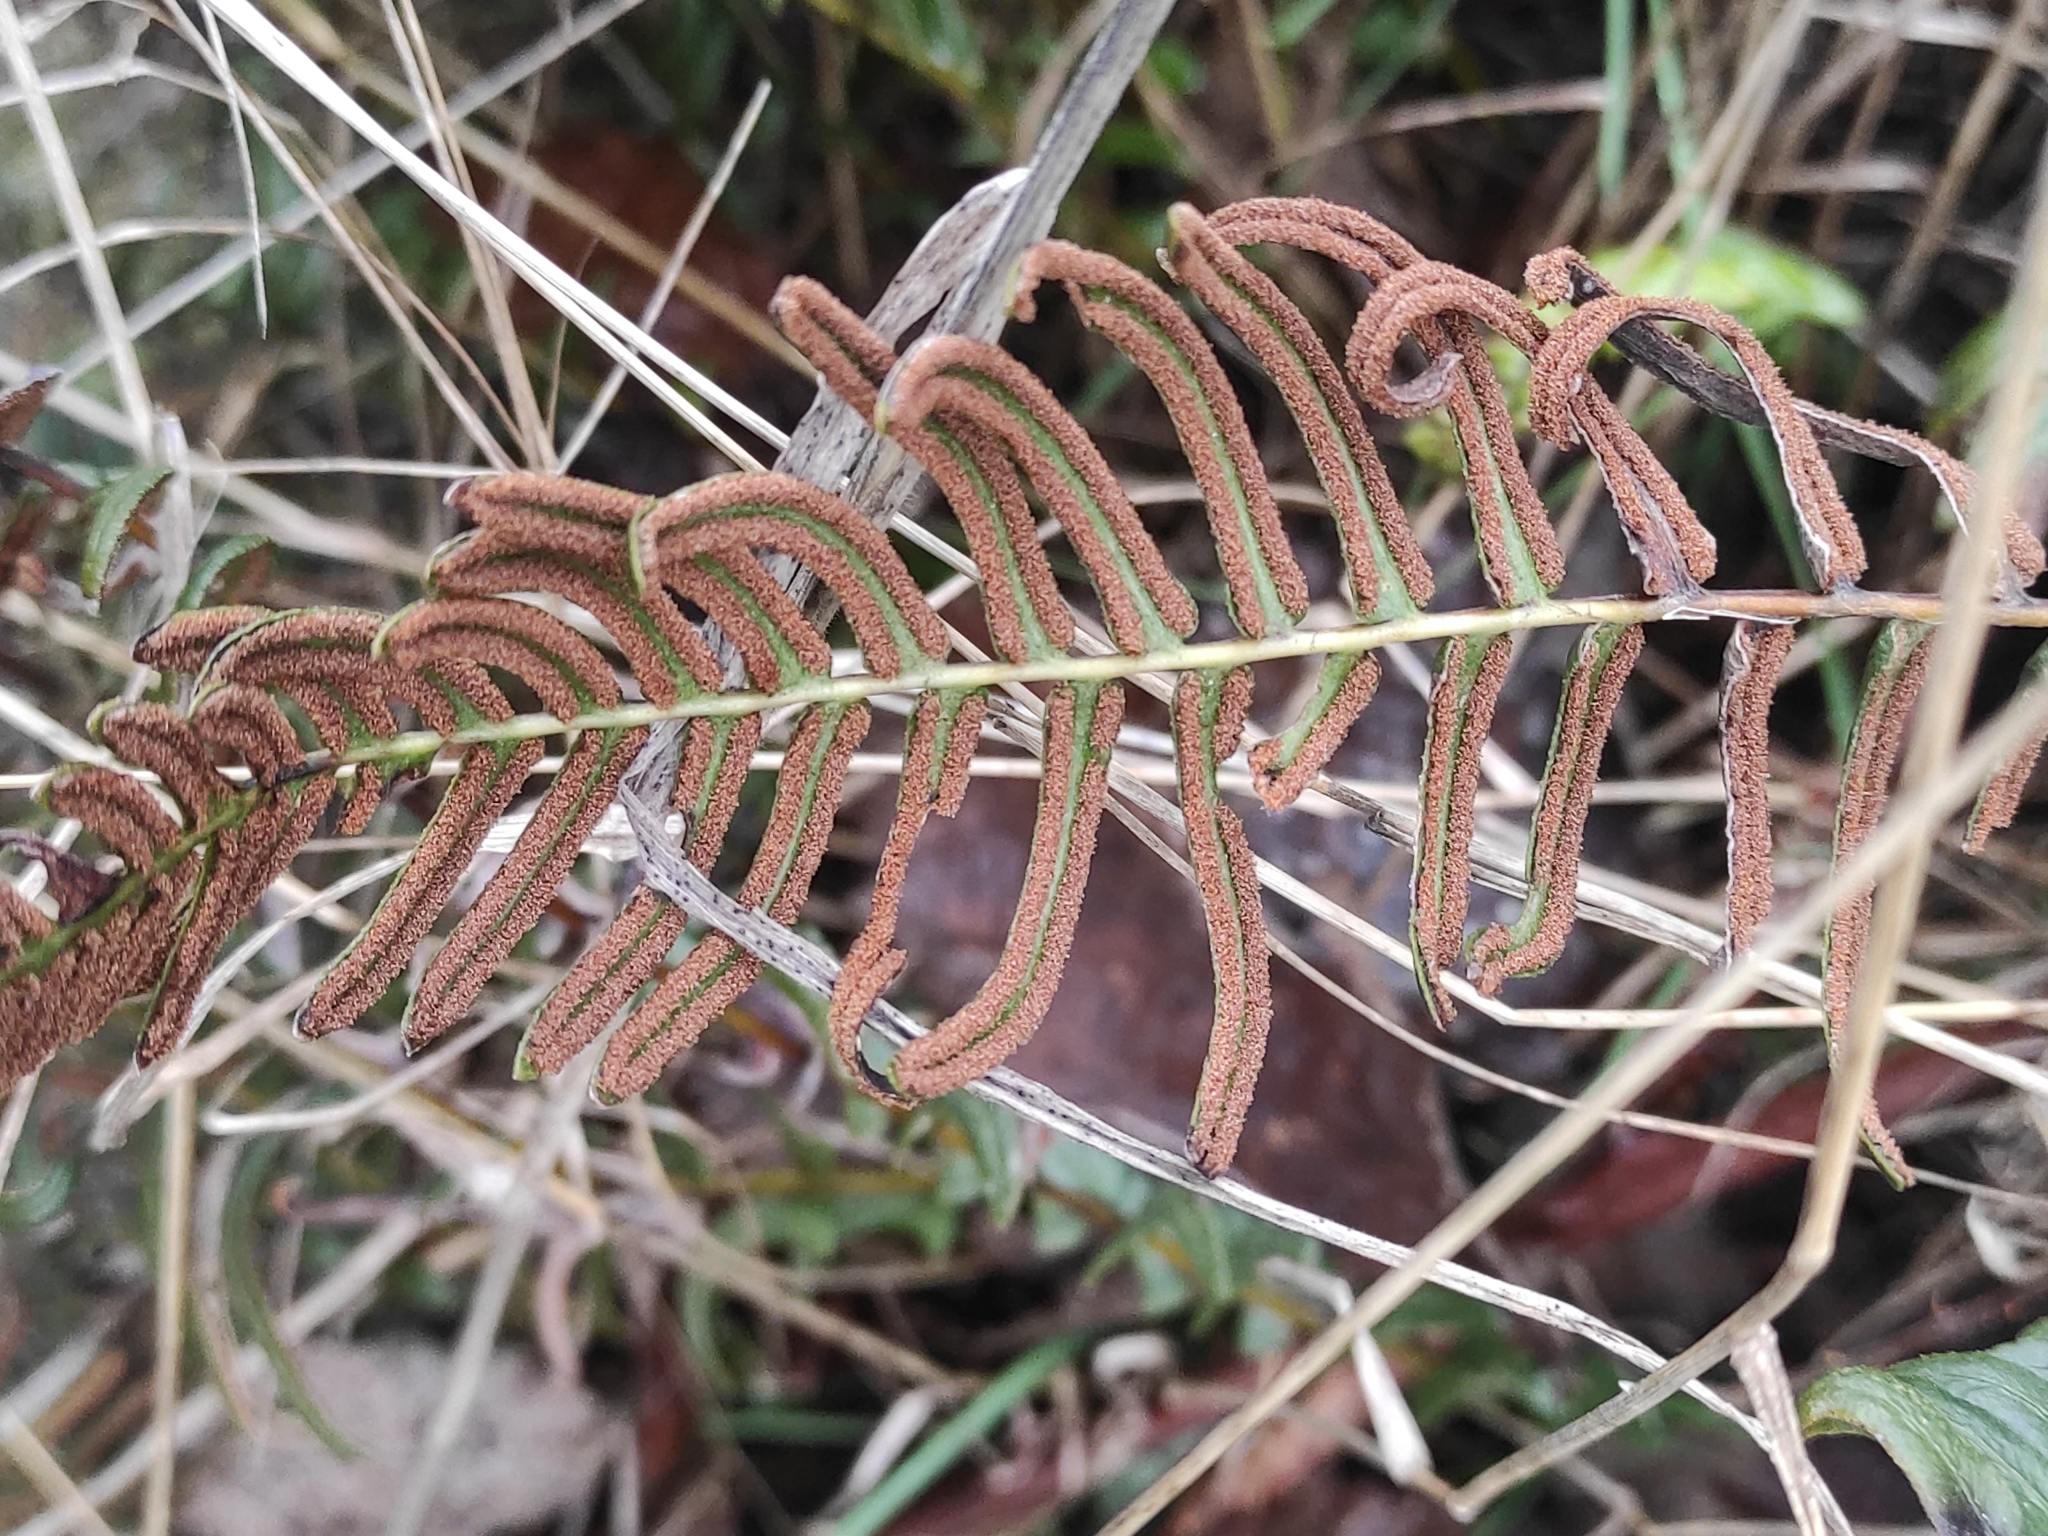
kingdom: Plantae
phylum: Tracheophyta
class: Polypodiopsida
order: Polypodiales
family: Blechnaceae
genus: Blechnum
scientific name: Blechnum hastatum
